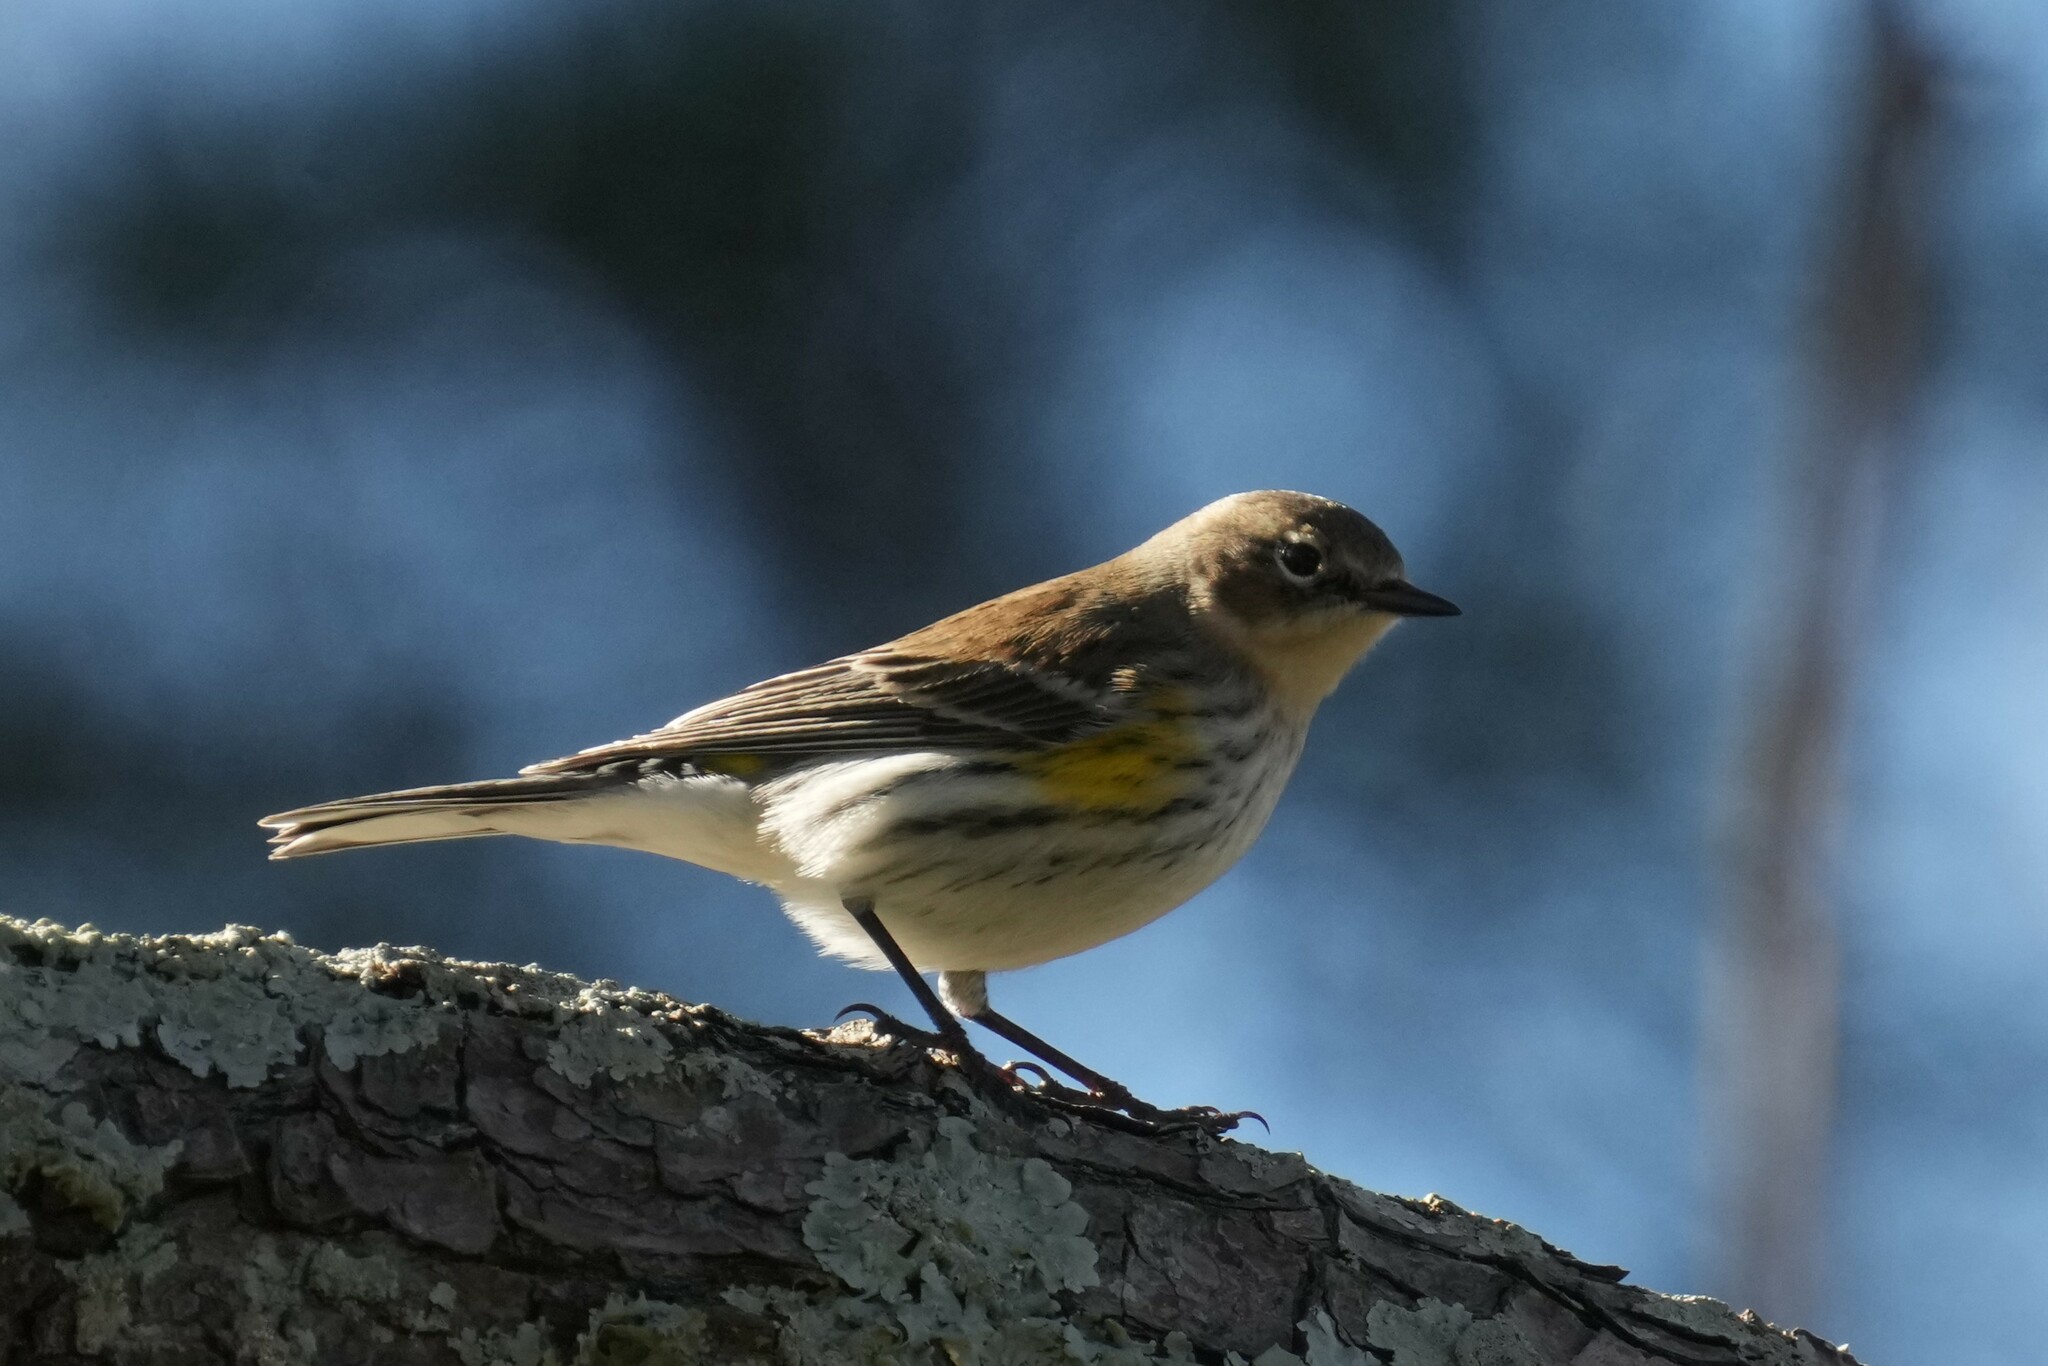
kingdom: Animalia
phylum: Chordata
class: Aves
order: Passeriformes
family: Parulidae
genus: Setophaga
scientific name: Setophaga coronata
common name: Myrtle warbler
